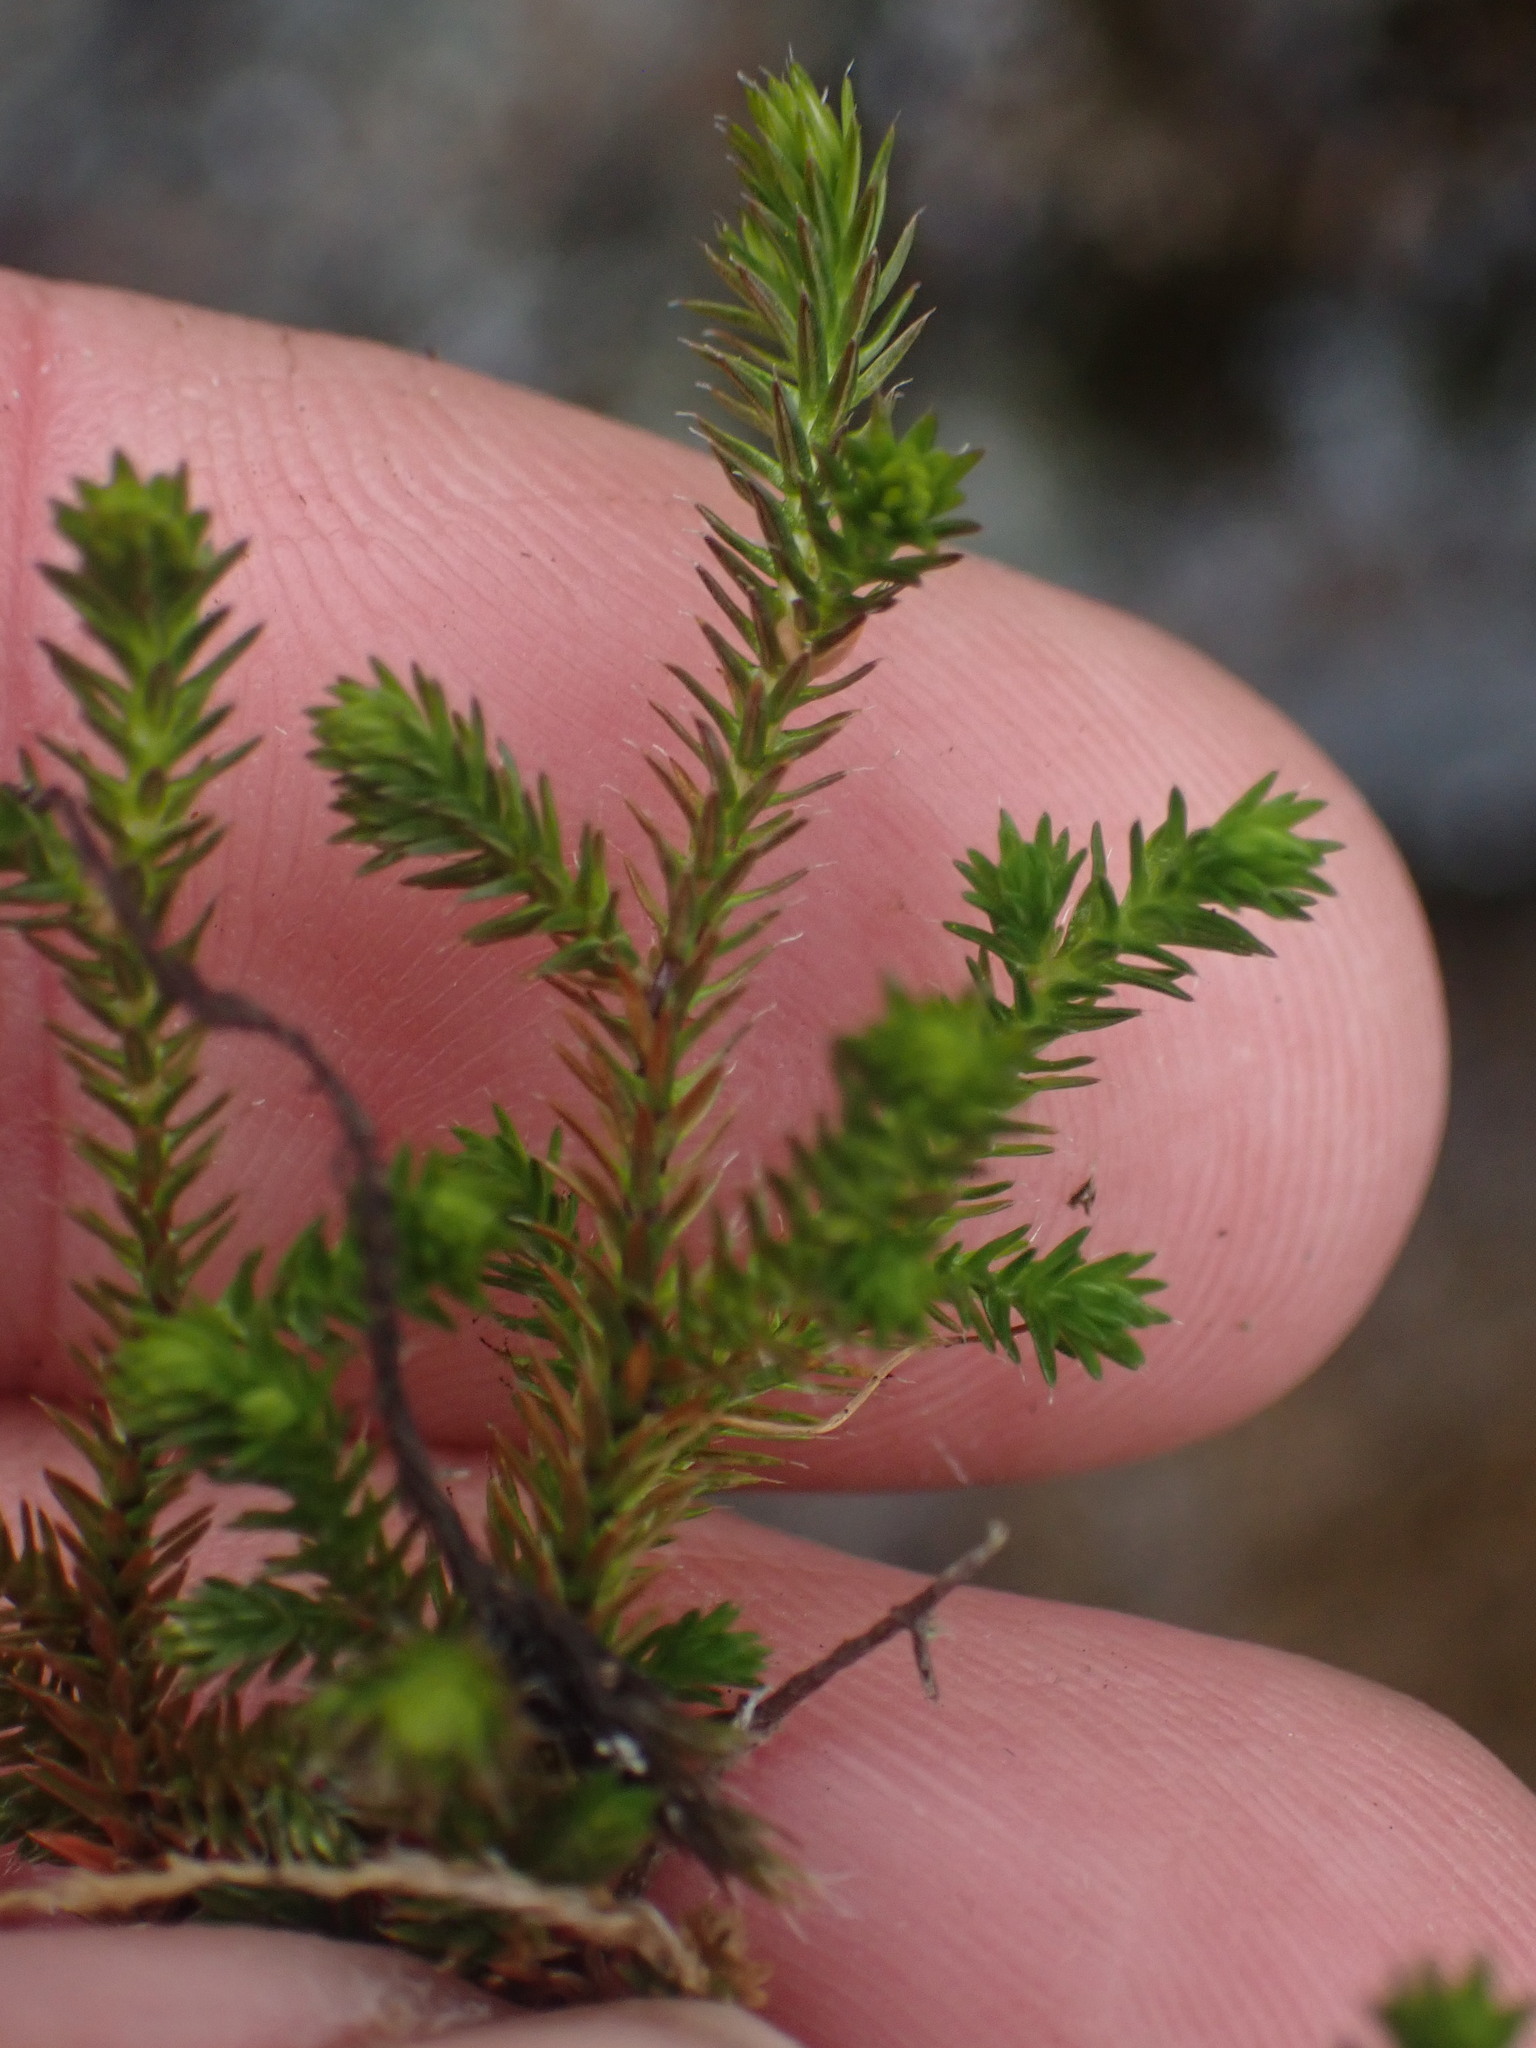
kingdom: Plantae
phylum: Tracheophyta
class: Lycopodiopsida
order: Selaginellales
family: Selaginellaceae
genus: Selaginella
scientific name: Selaginella wallacei
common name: Wallace's selaginella
